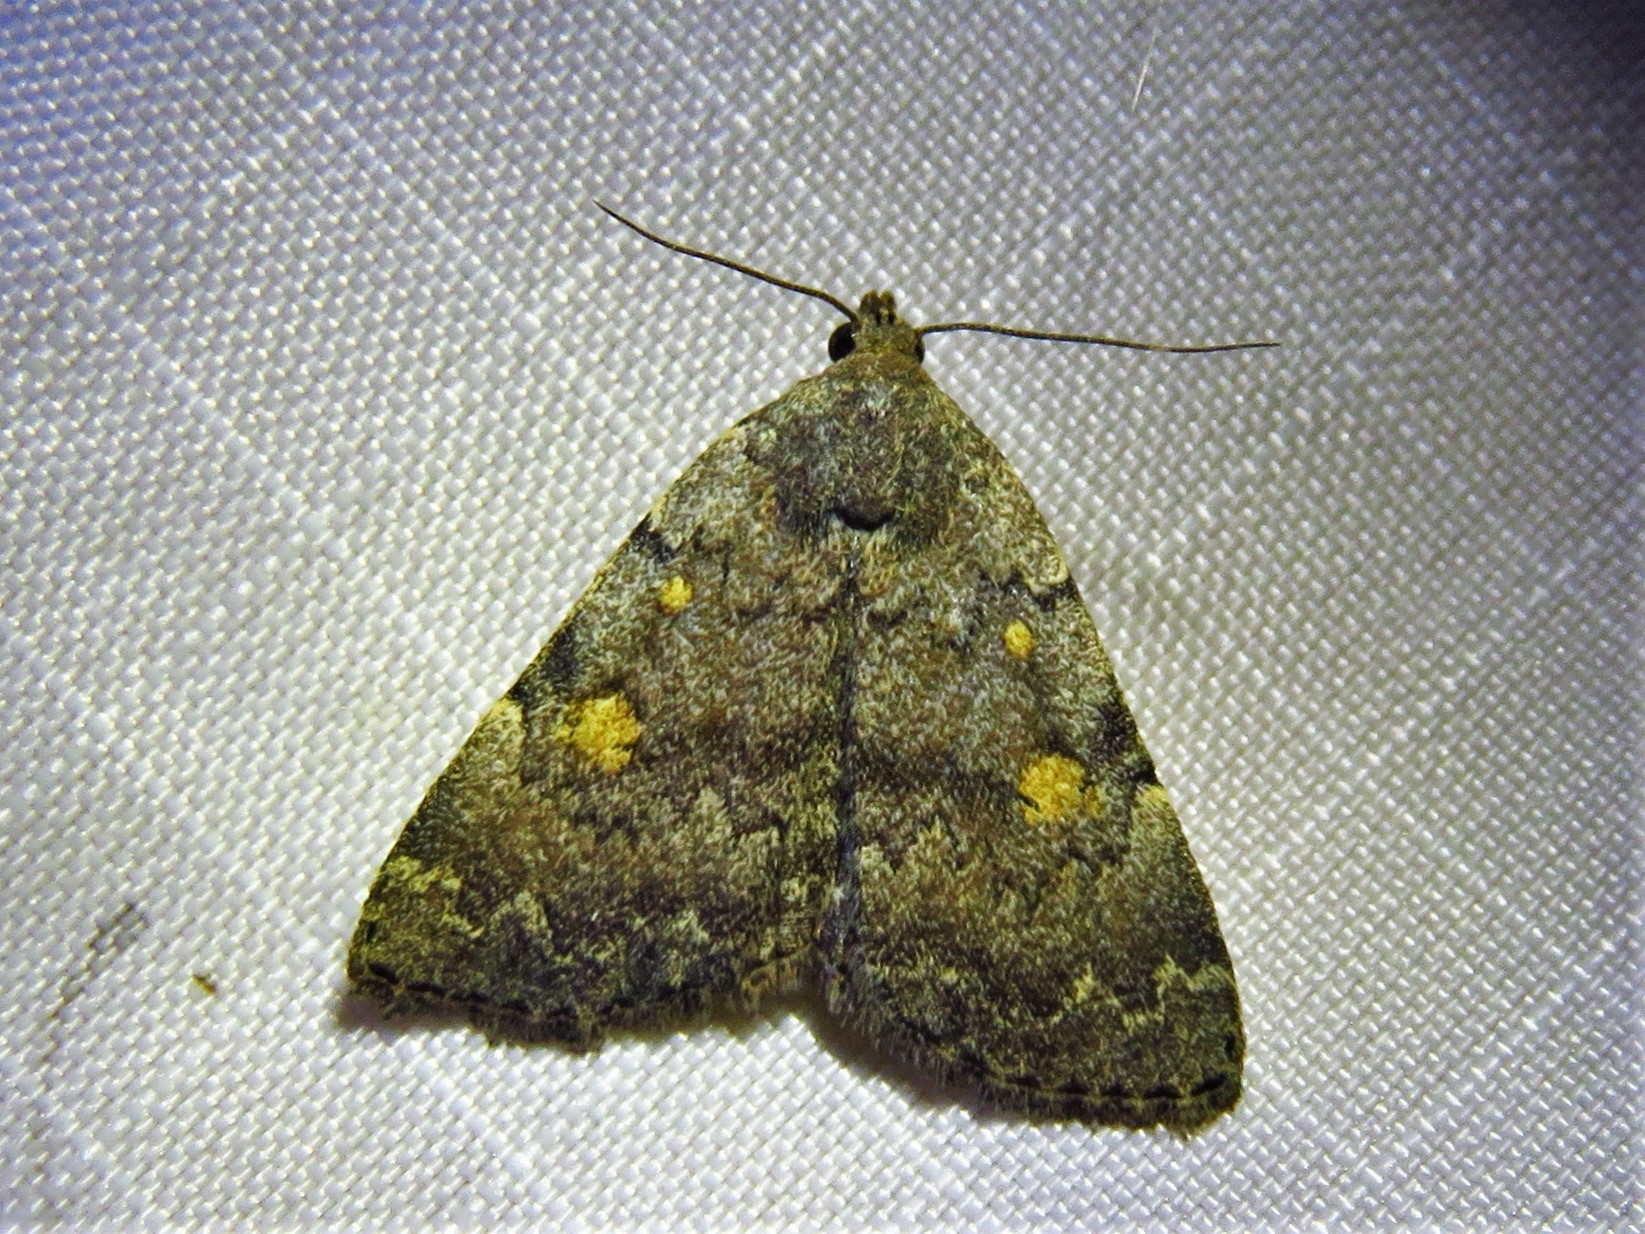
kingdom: Animalia
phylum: Arthropoda
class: Insecta
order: Lepidoptera
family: Erebidae
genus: Idia
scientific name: Idia aemula
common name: Common idia moth
